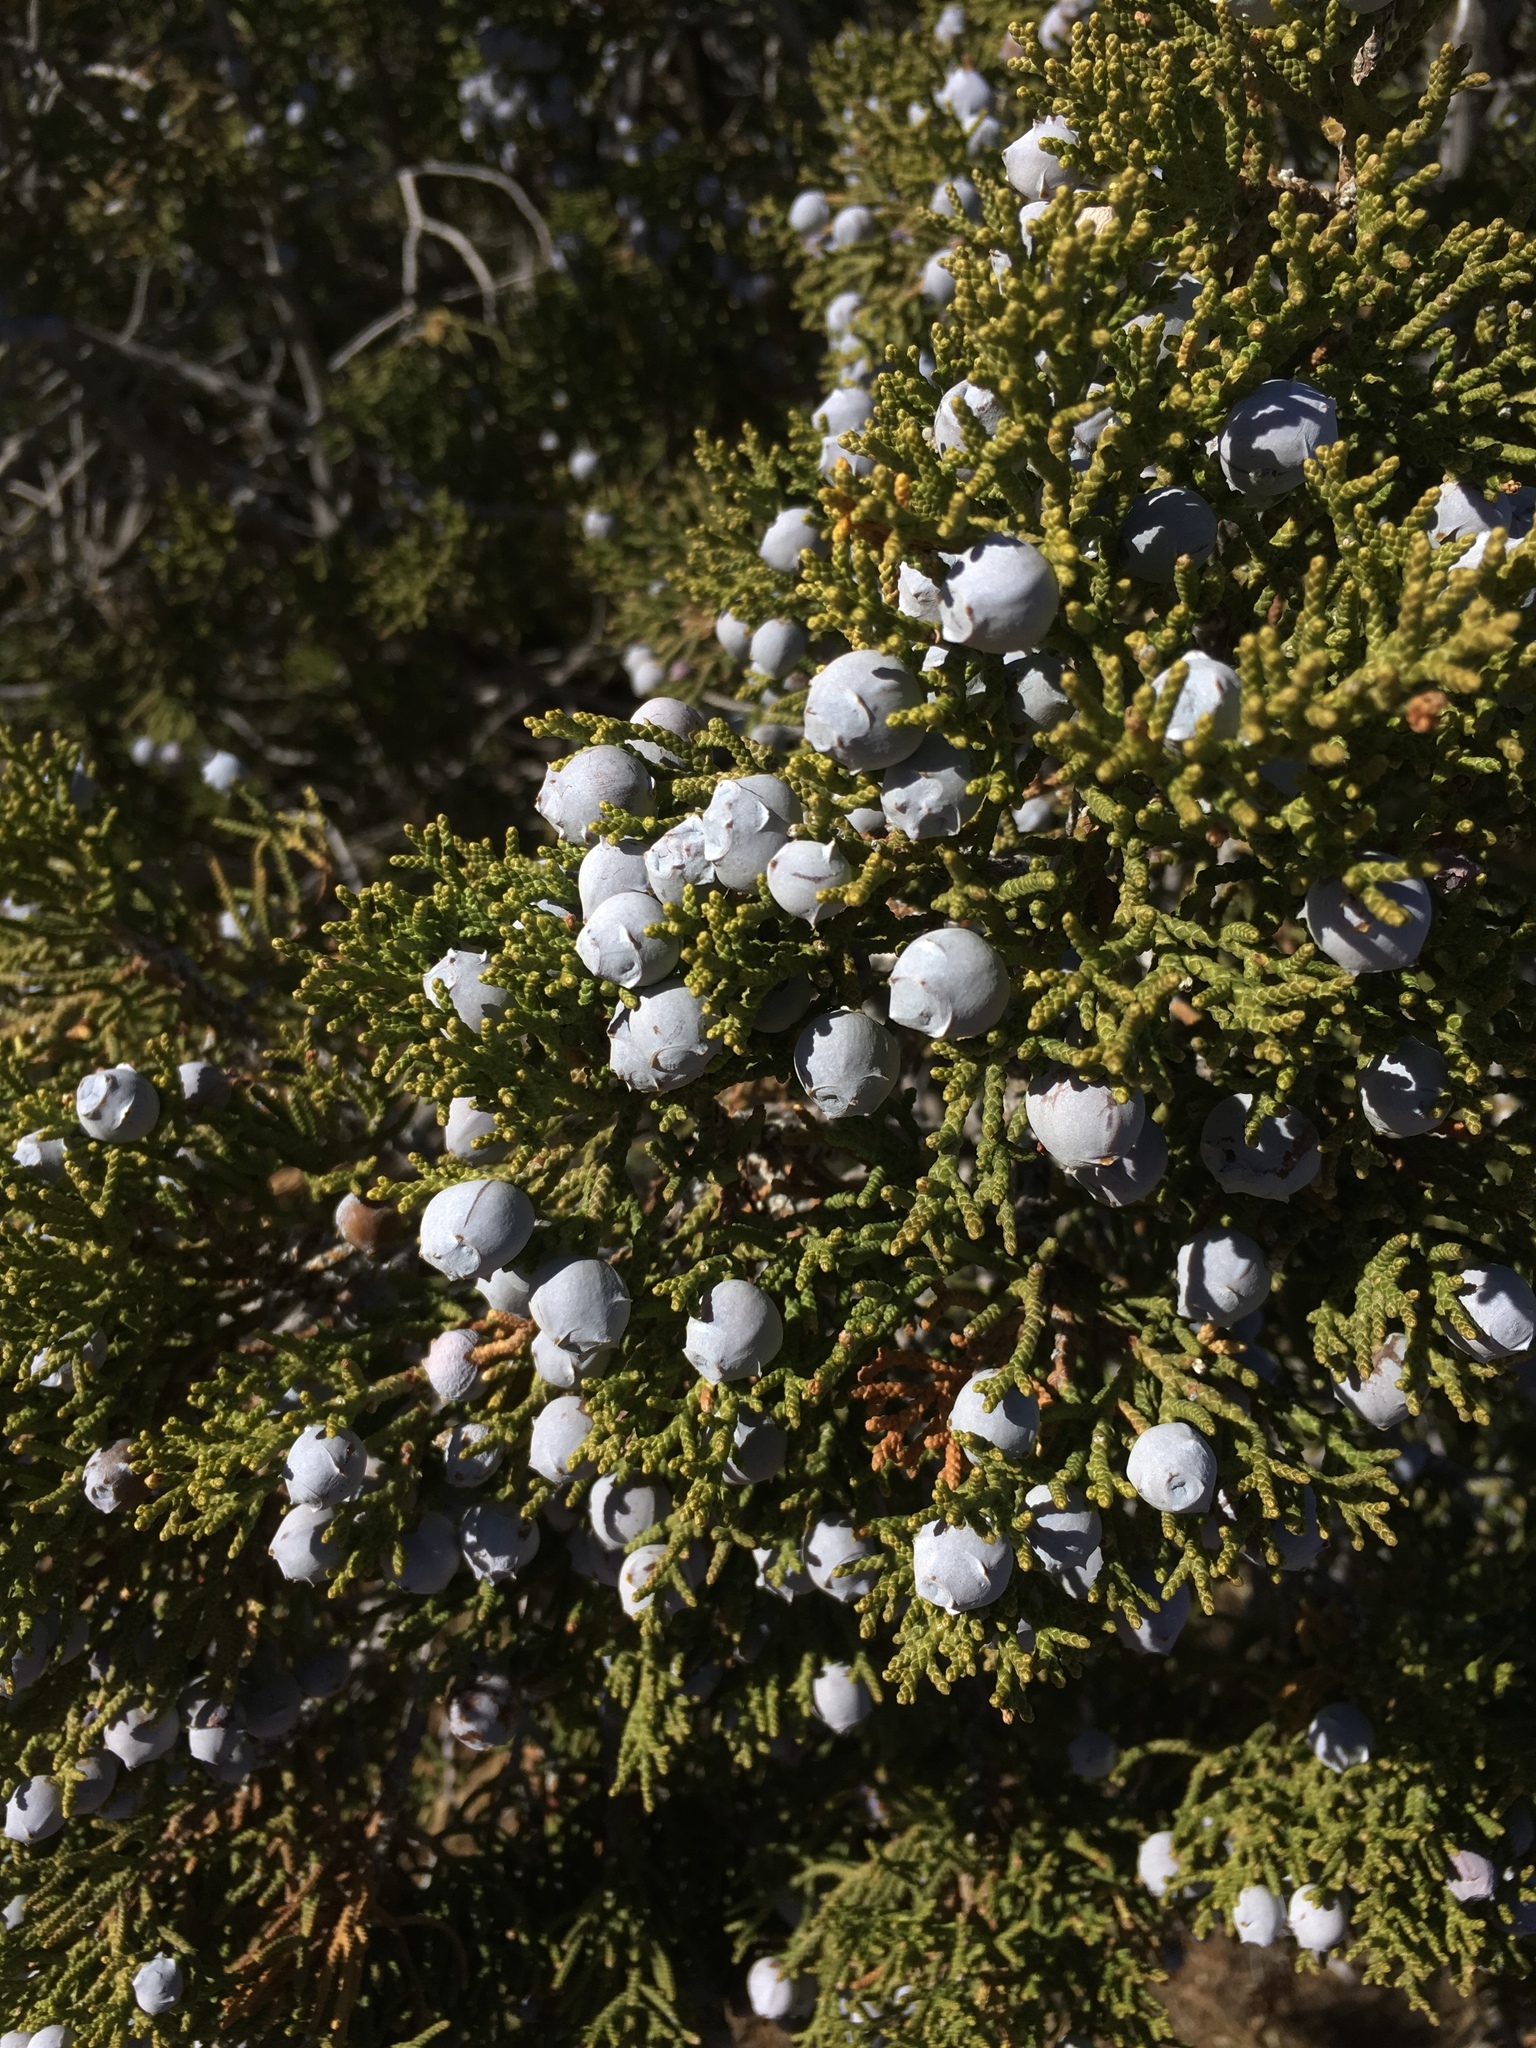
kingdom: Plantae
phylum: Tracheophyta
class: Pinopsida
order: Pinales
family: Cupressaceae
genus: Juniperus
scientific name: Juniperus californica
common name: California juniper
